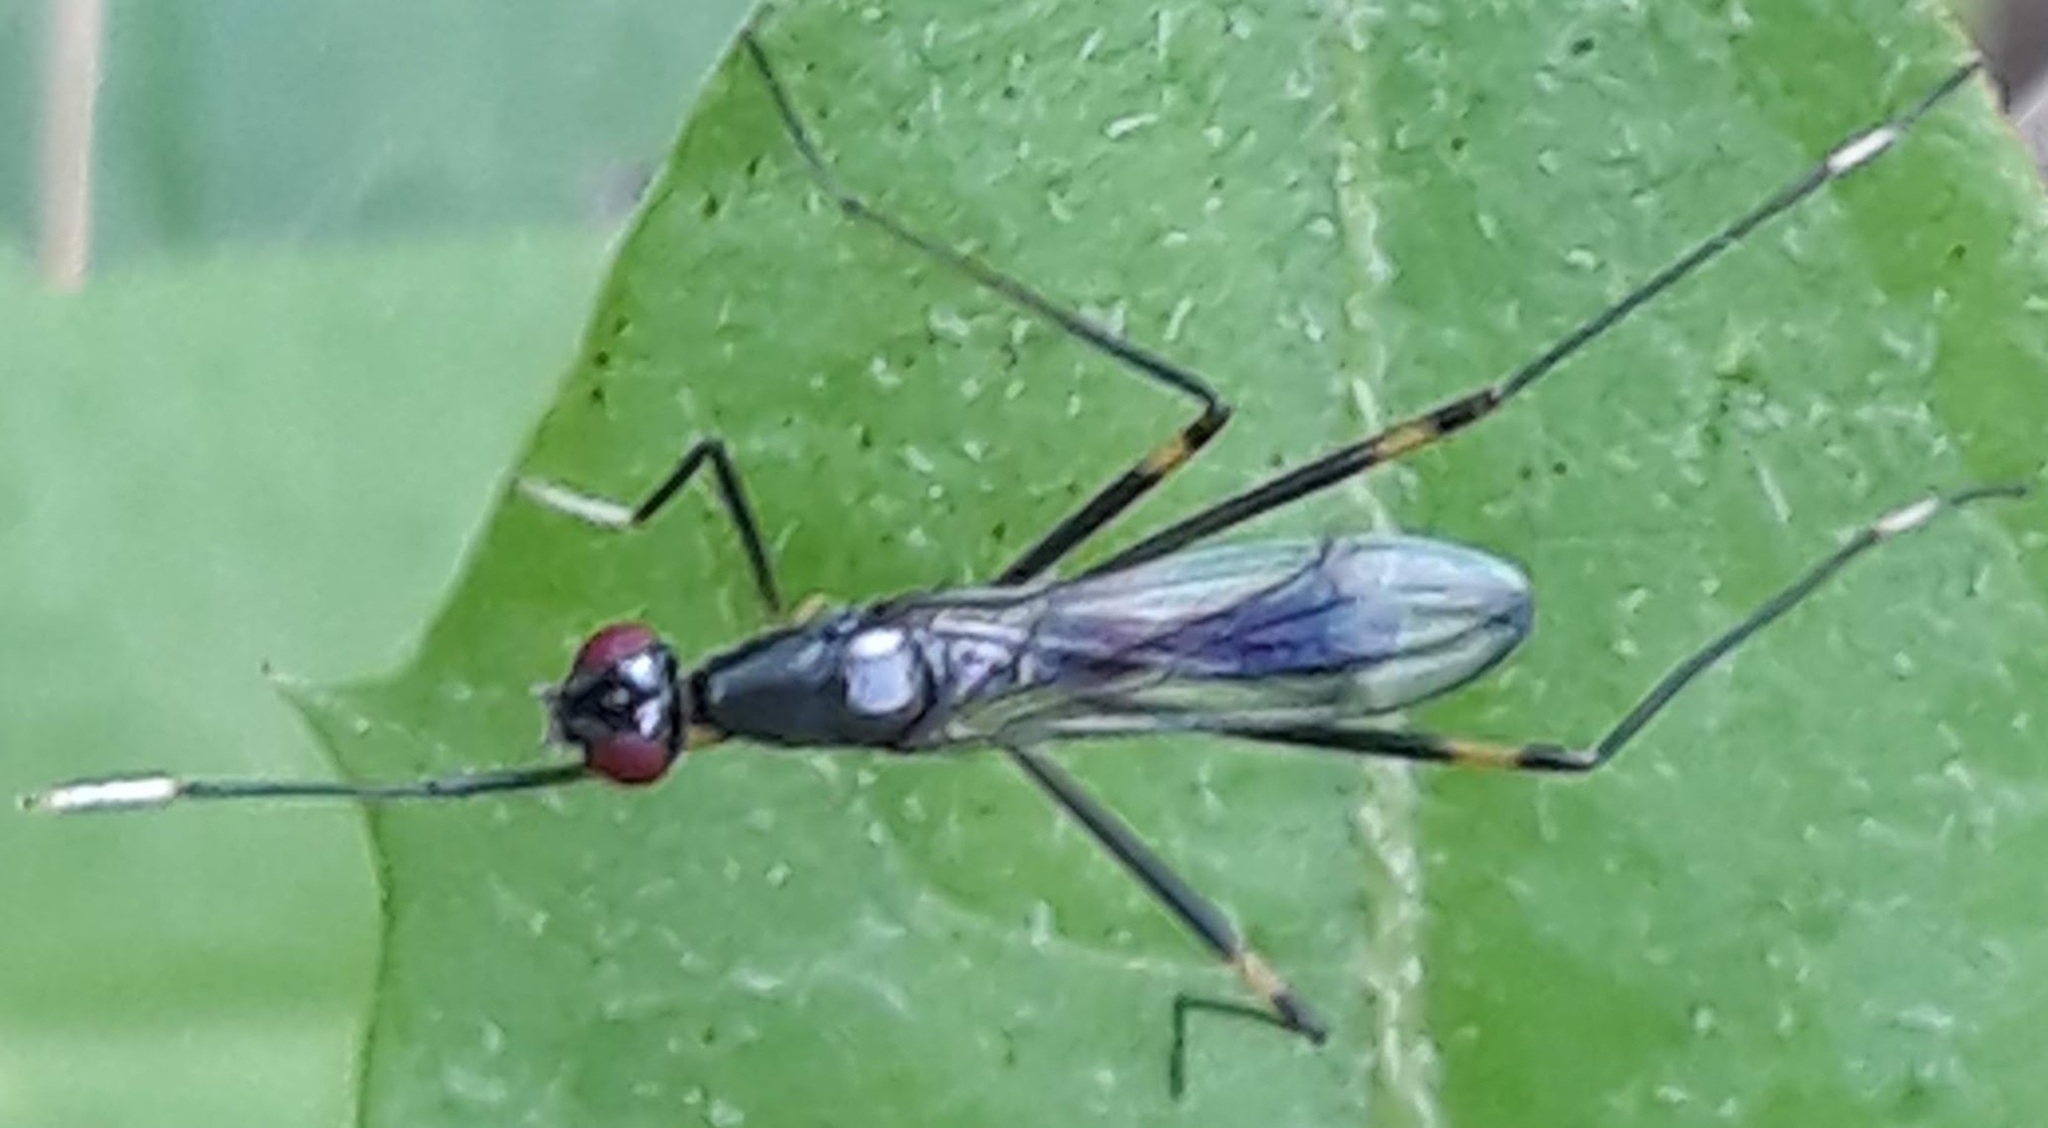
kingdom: Animalia
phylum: Arthropoda
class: Insecta
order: Diptera
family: Micropezidae
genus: Rainieria
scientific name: Rainieria antennaepes
